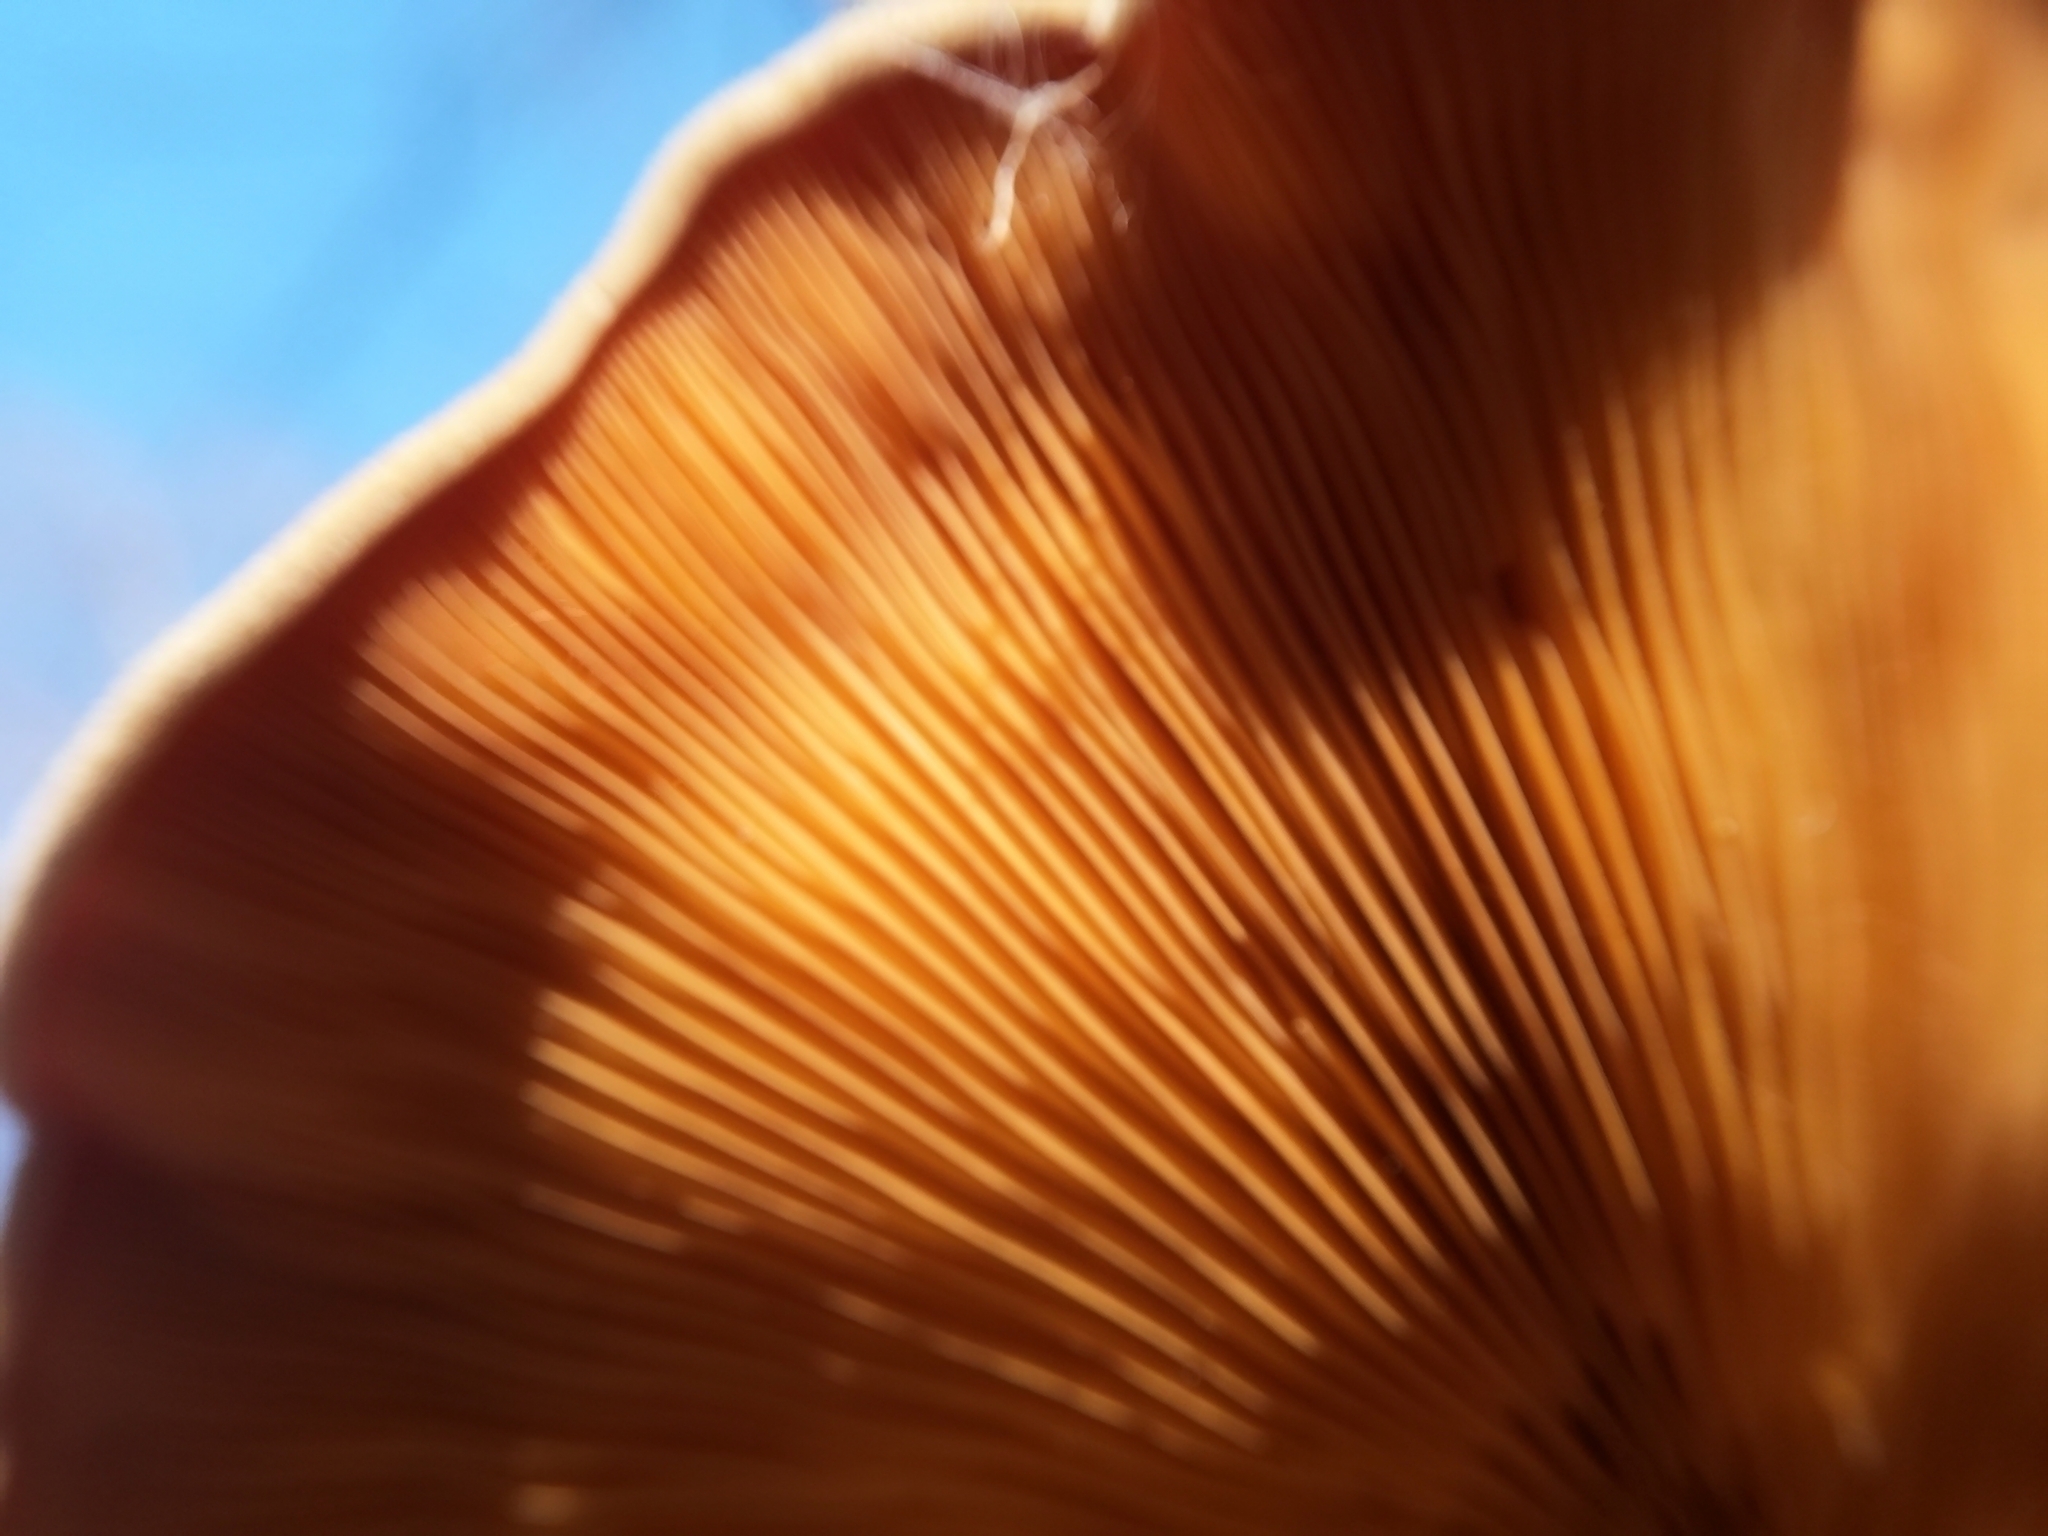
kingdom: Fungi
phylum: Basidiomycota
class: Agaricomycetes
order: Agaricales
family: Phyllotopsidaceae
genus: Phyllotopsis
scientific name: Phyllotopsis nidulans
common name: Orange mock oyster
